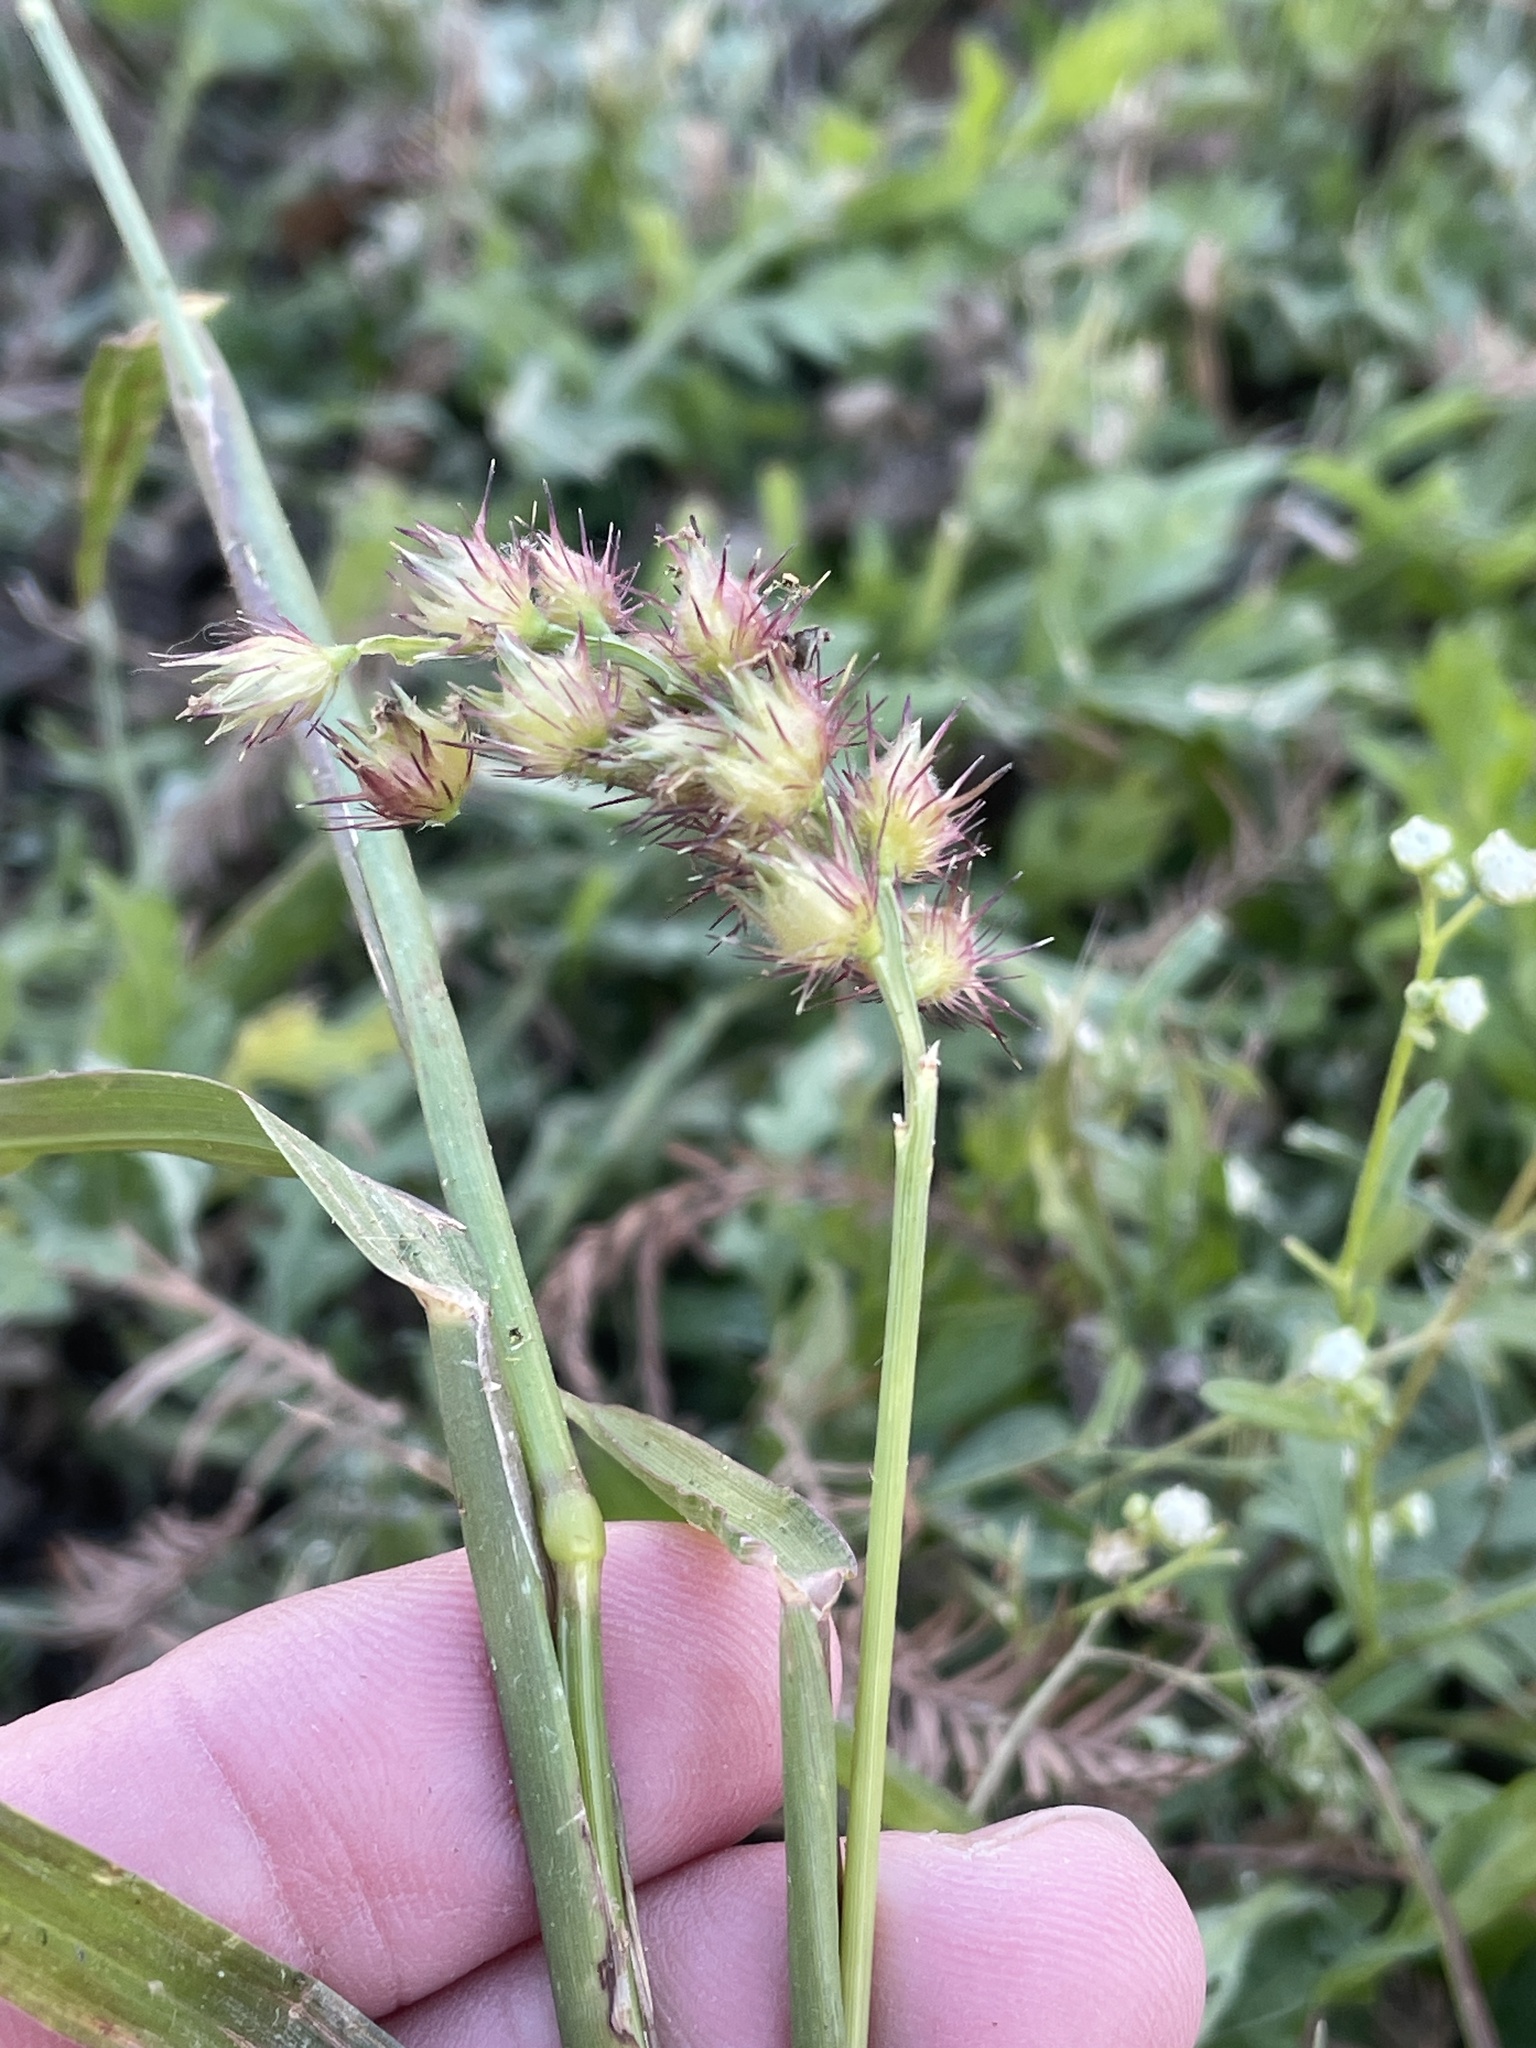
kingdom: Plantae
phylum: Tracheophyta
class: Liliopsida
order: Poales
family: Poaceae
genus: Cenchrus
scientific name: Cenchrus echinatus
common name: Southern sandbur
